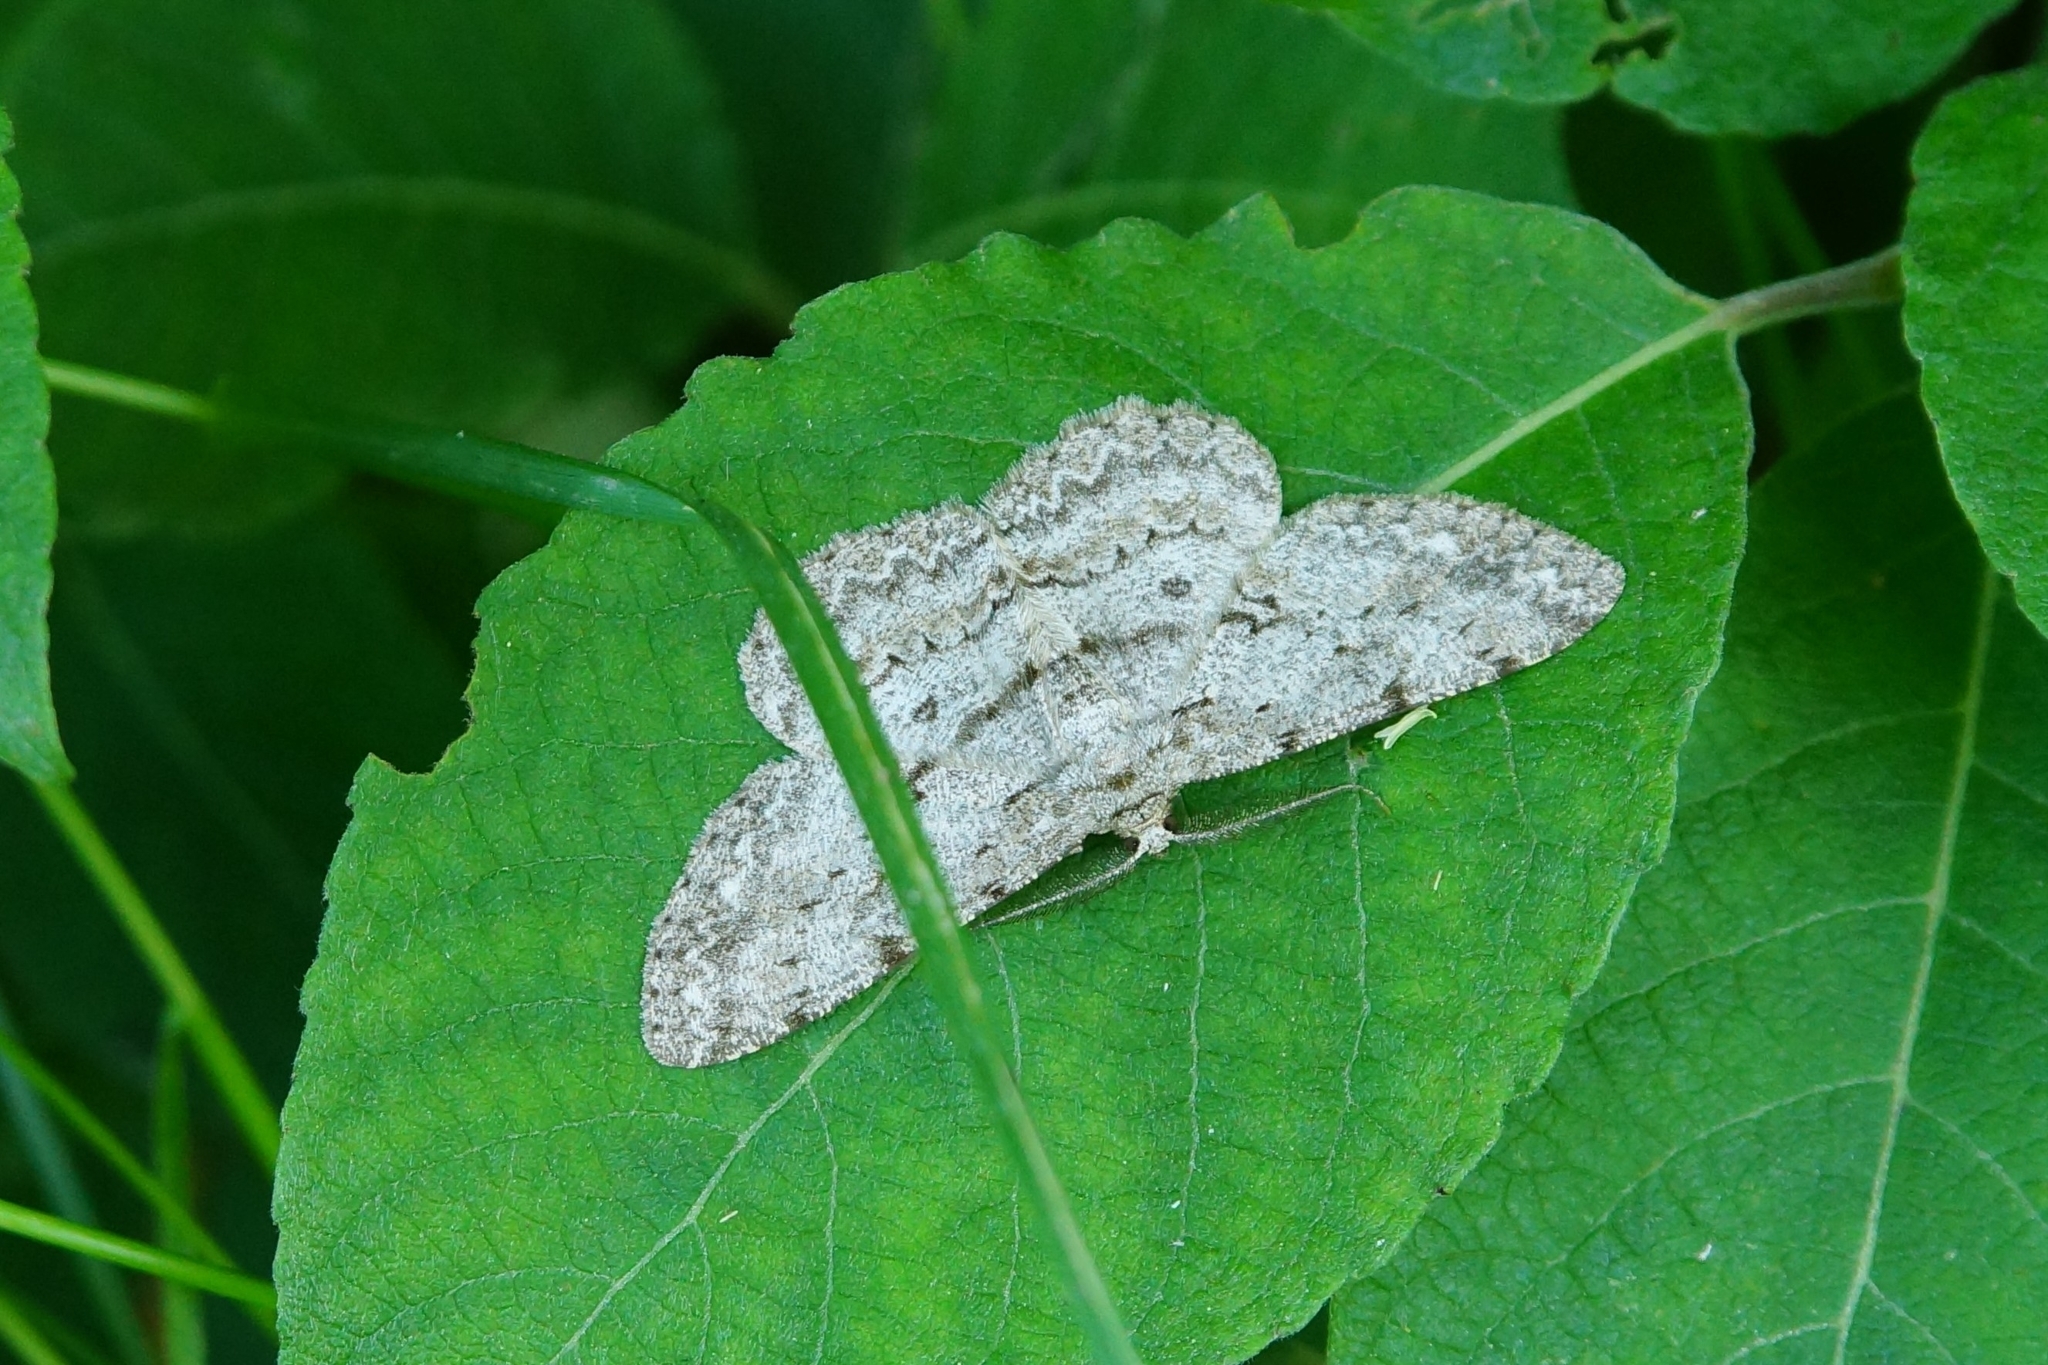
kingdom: Animalia
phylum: Arthropoda
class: Insecta
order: Lepidoptera
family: Geometridae
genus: Hypomecis
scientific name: Hypomecis punctinalis
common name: Pale oak beauty
